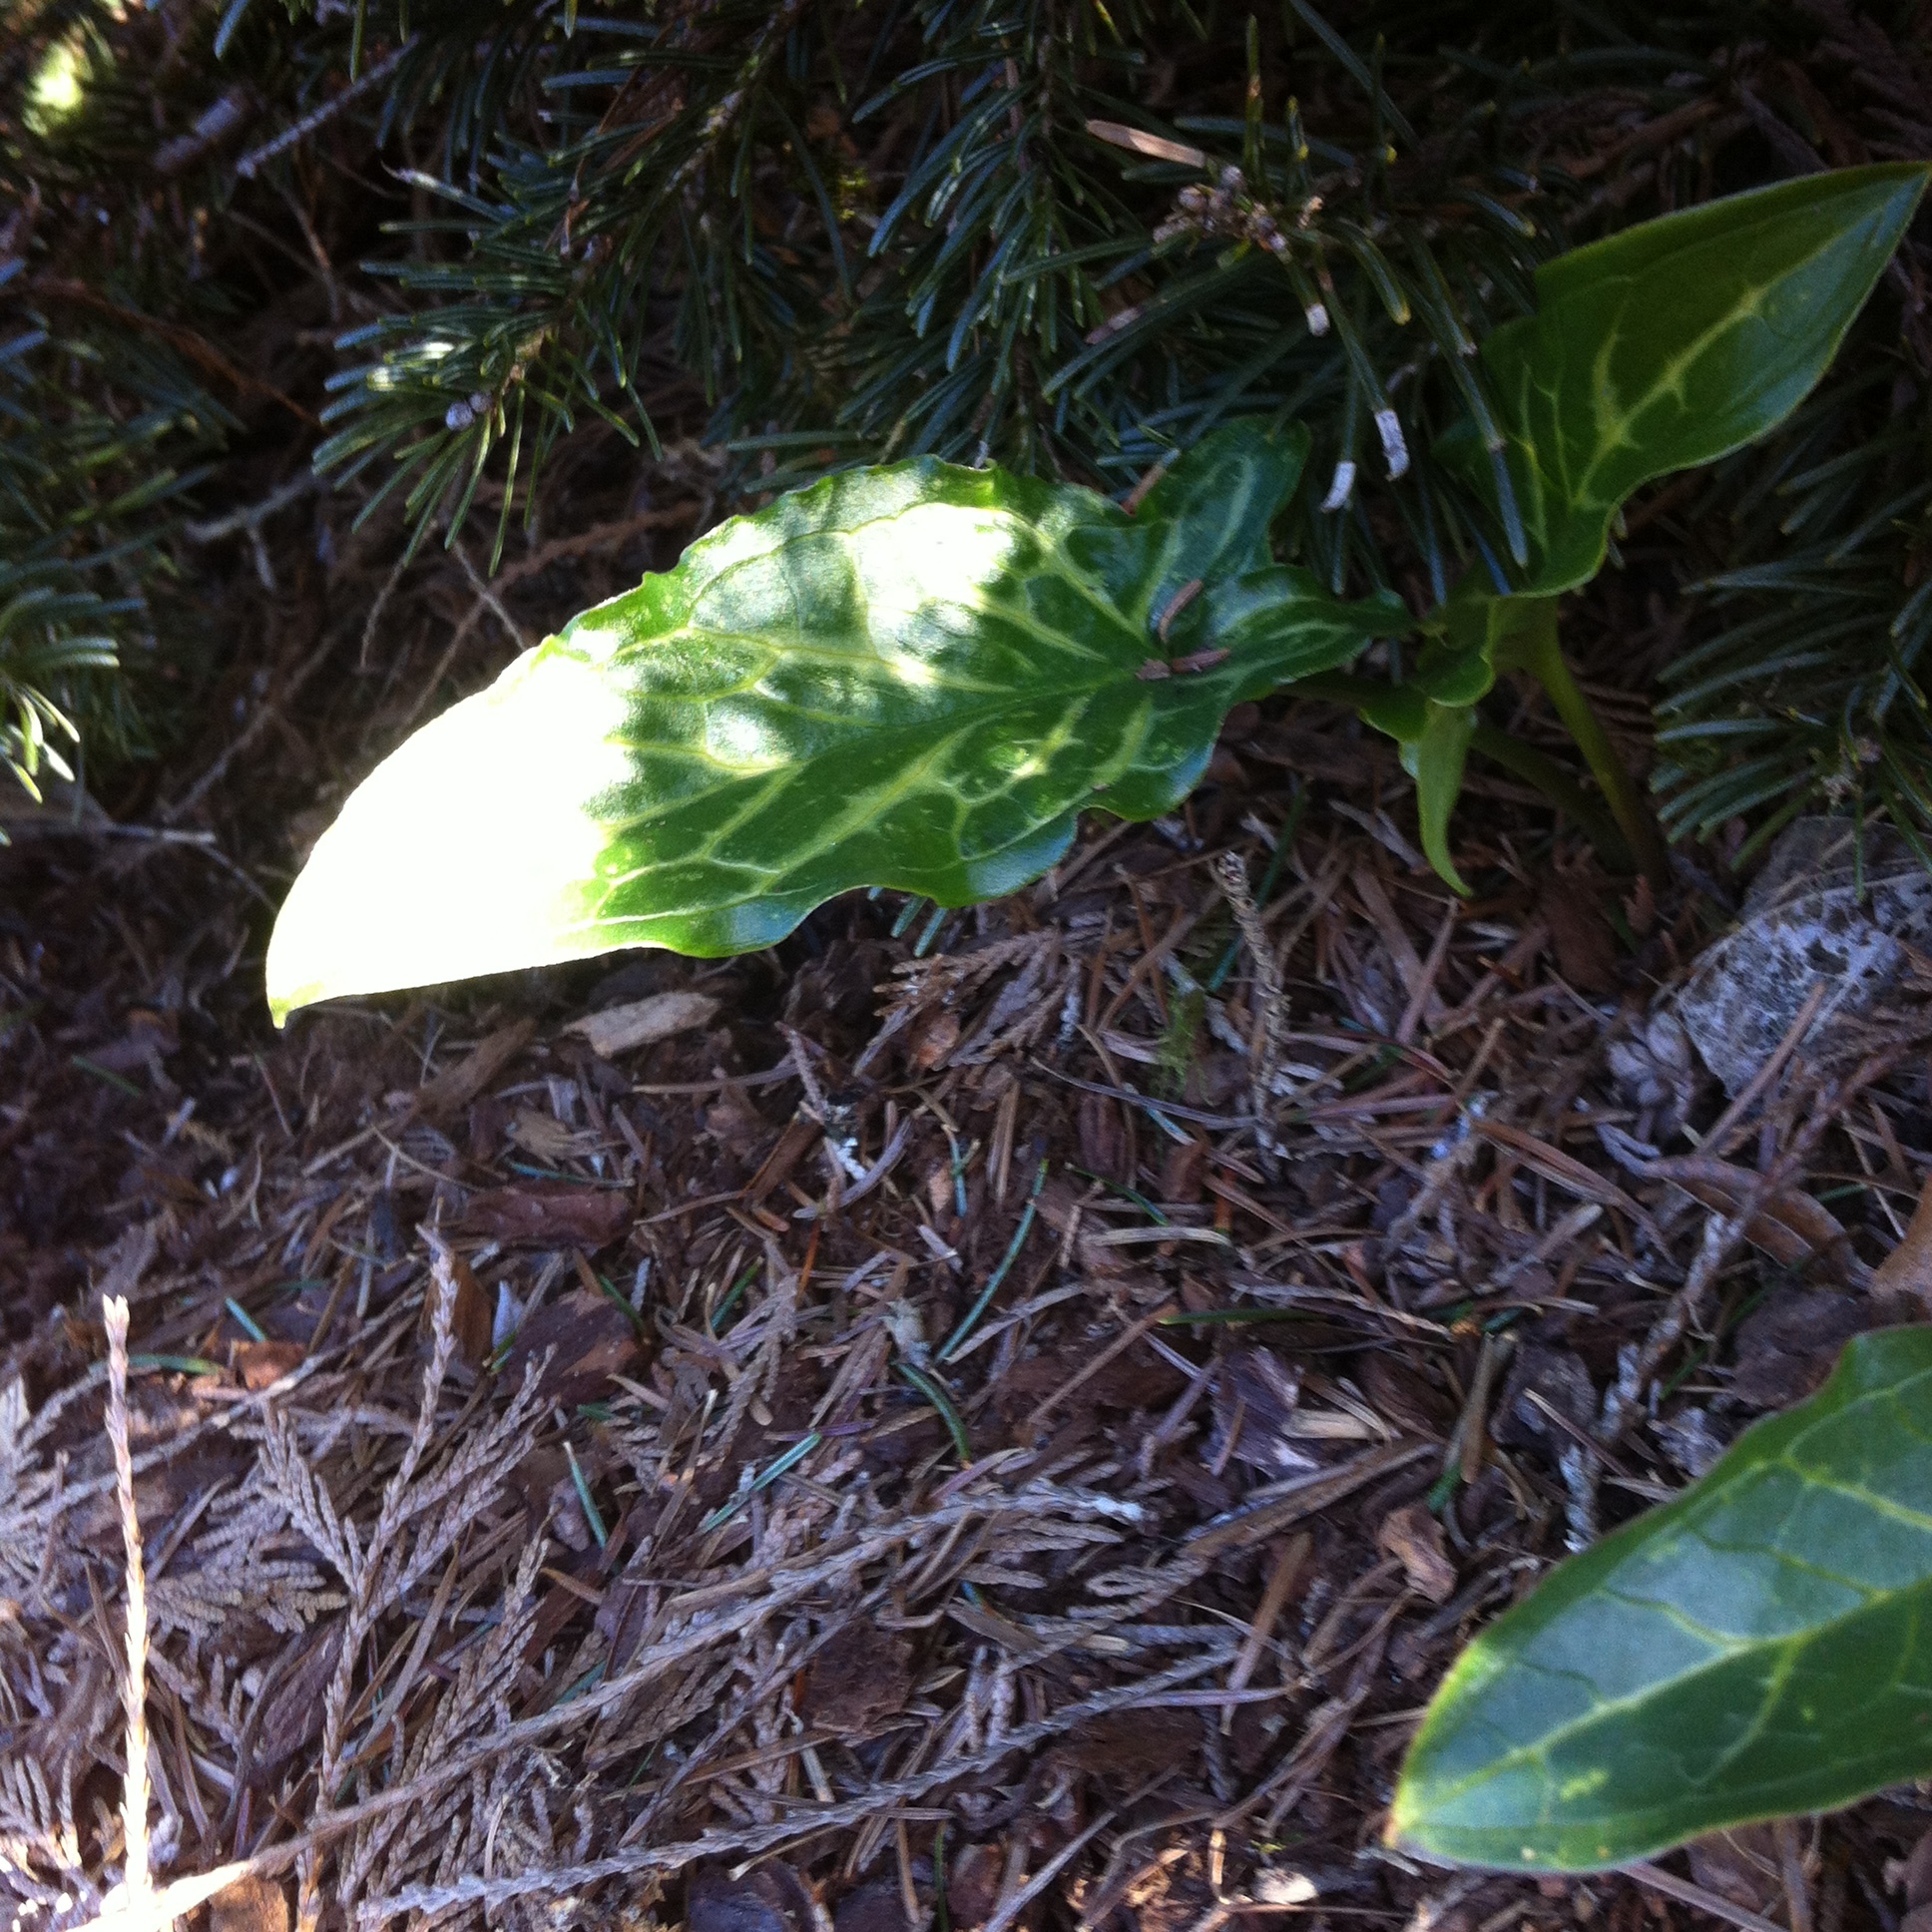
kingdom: Plantae
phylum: Tracheophyta
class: Liliopsida
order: Alismatales
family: Araceae
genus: Arum
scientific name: Arum italicum
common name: Italian lords-and-ladies
